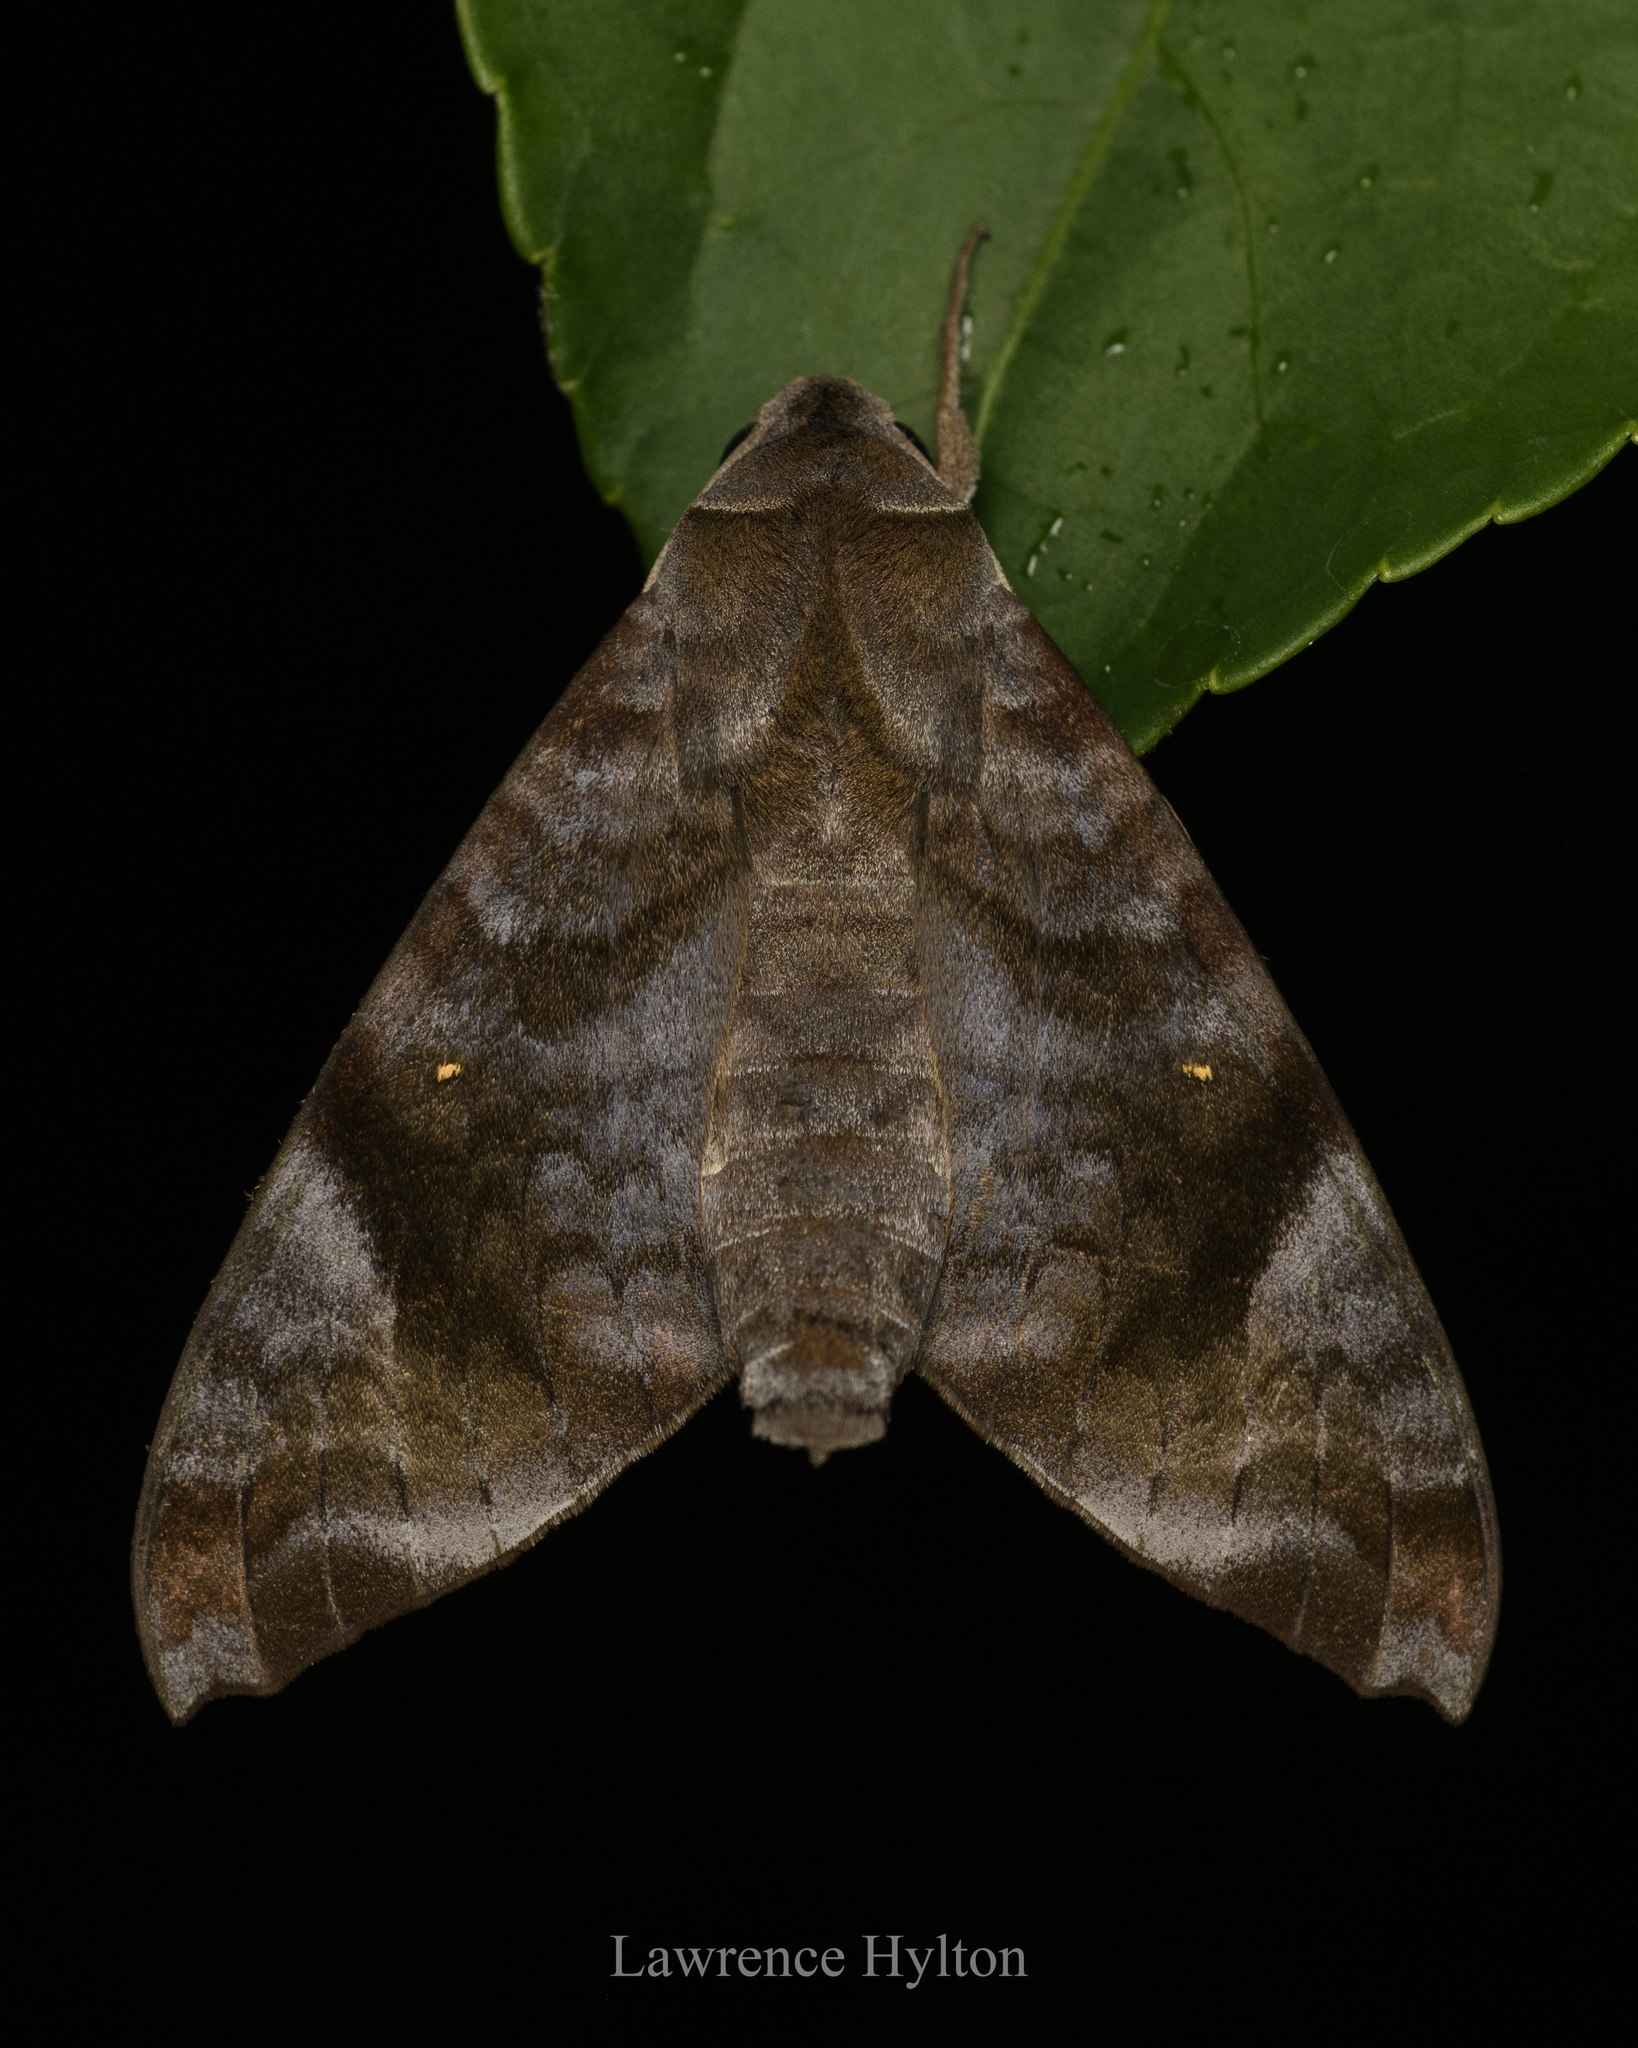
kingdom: Animalia
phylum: Arthropoda
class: Insecta
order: Lepidoptera
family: Sphingidae
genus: Acosmeryx
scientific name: Acosmeryx pseudonaga
